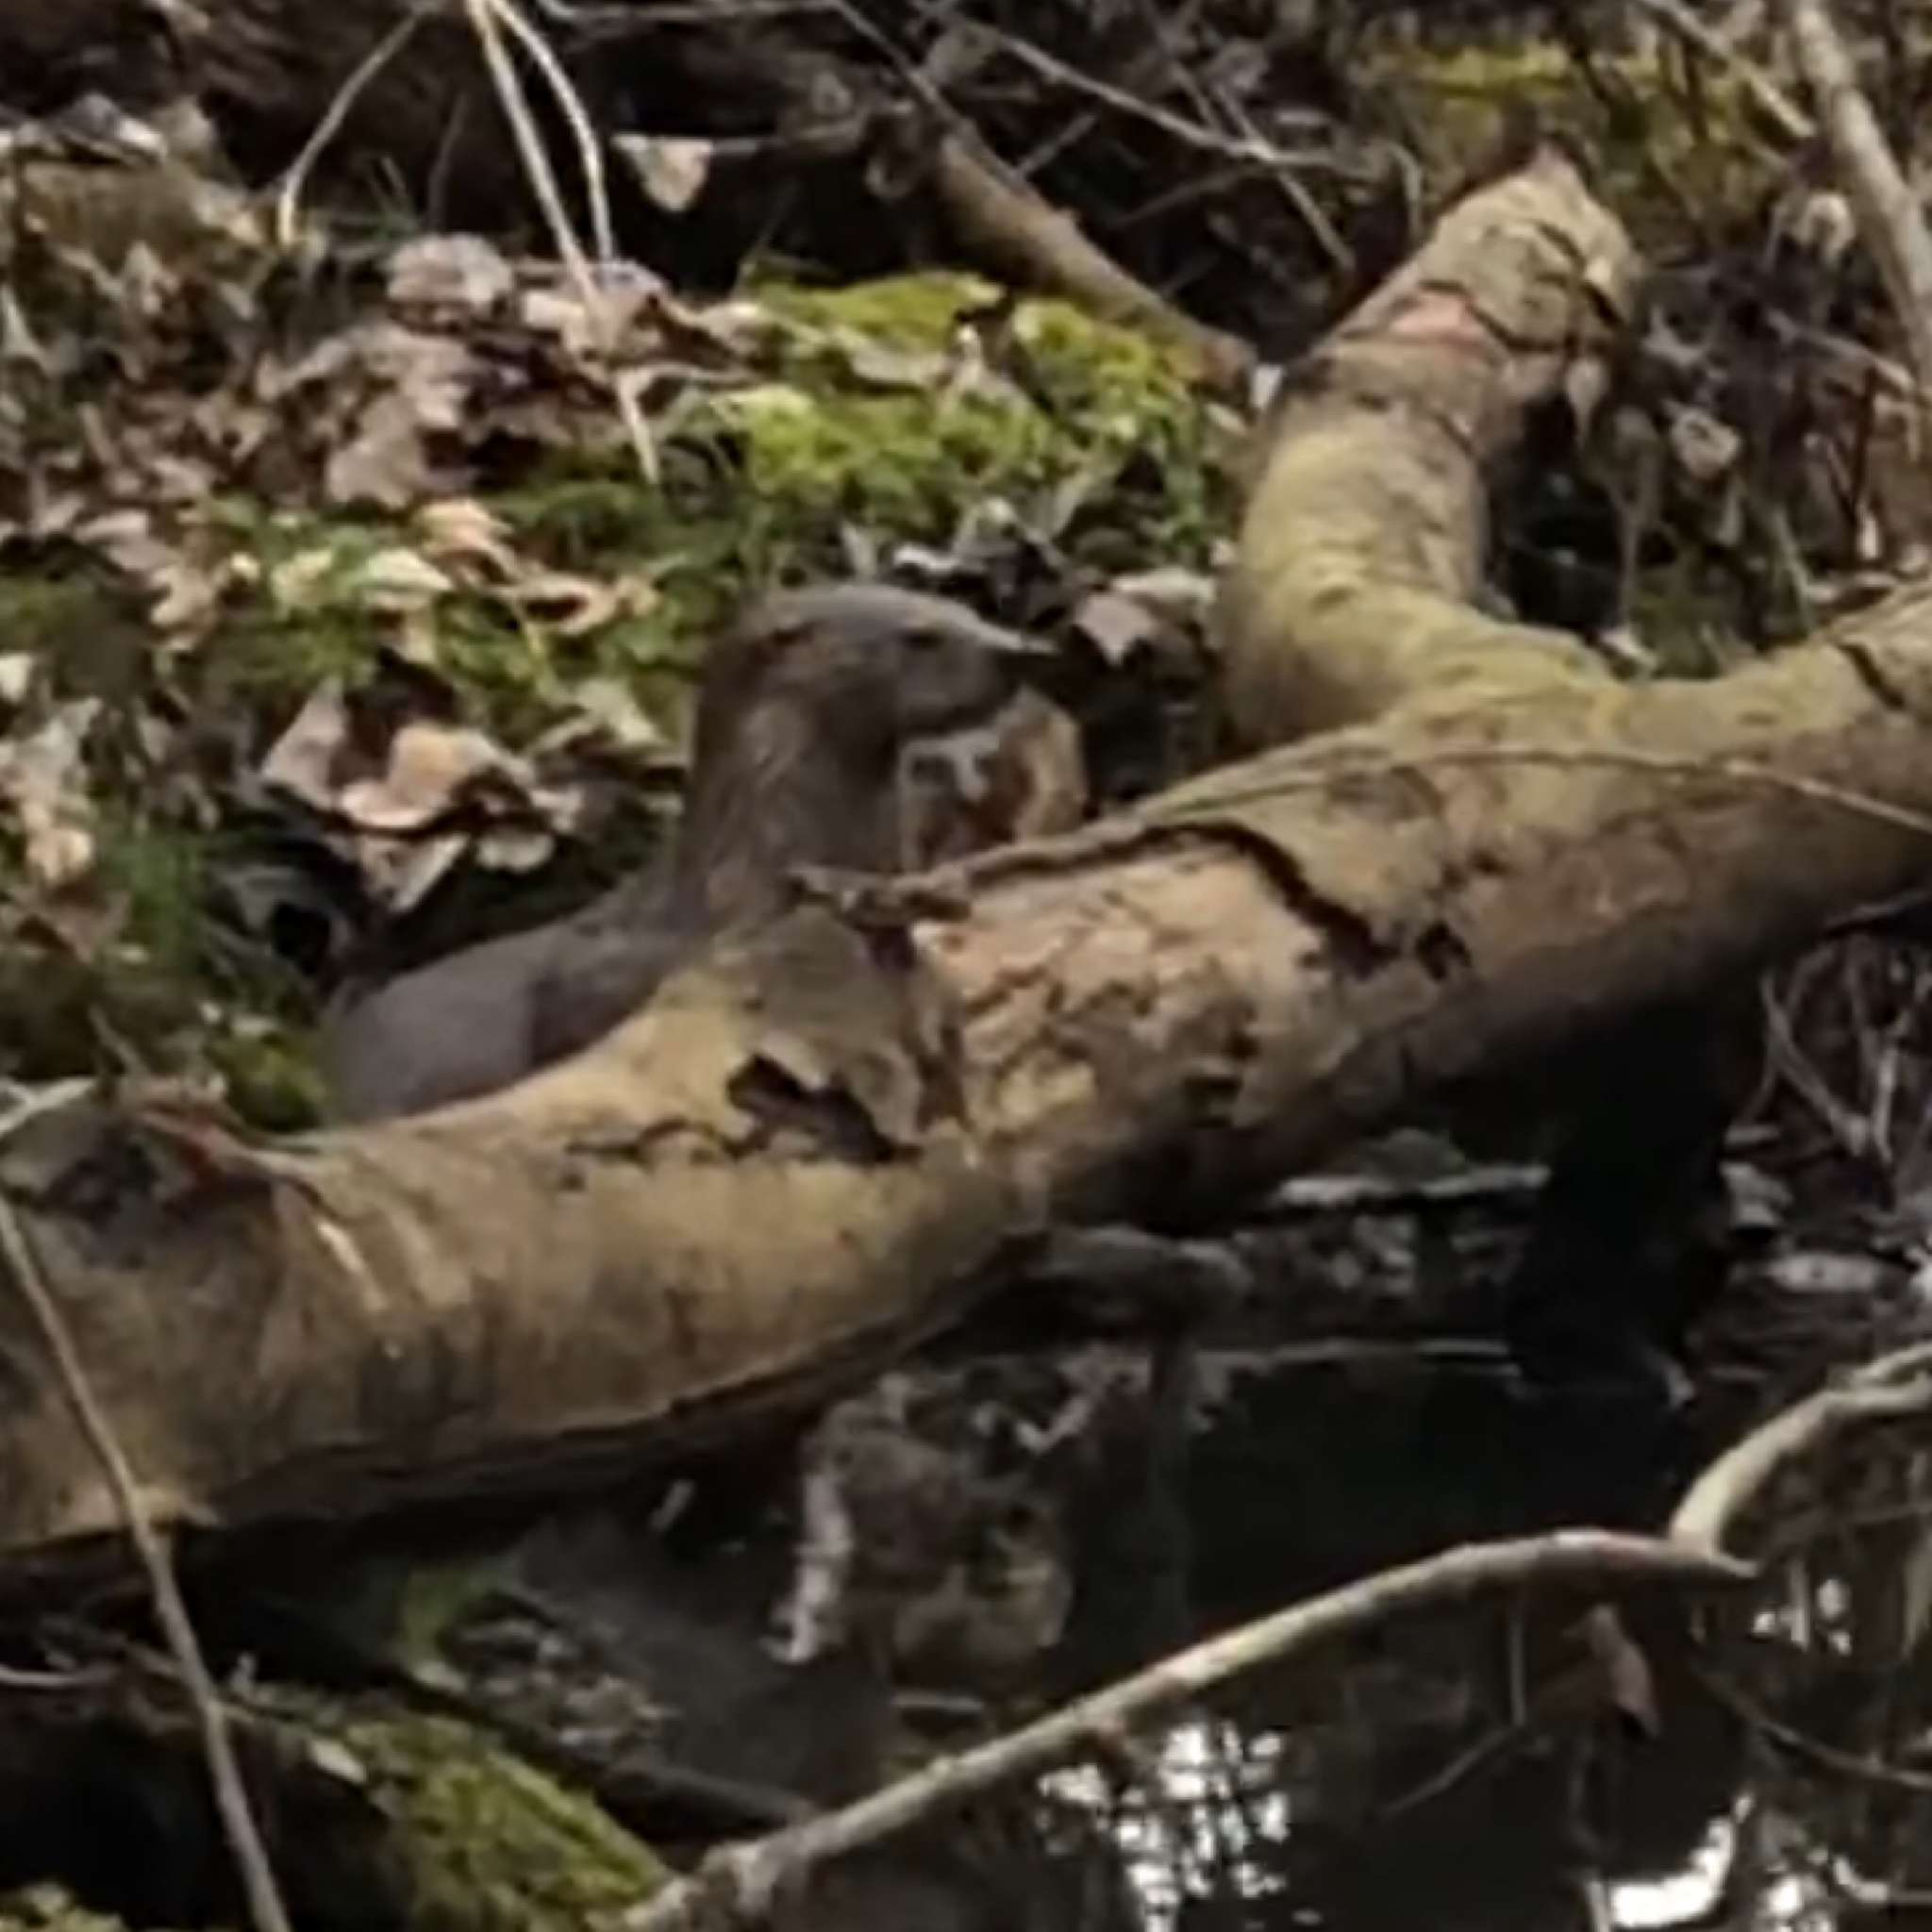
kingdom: Animalia
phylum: Chordata
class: Mammalia
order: Carnivora
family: Mustelidae
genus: Lontra
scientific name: Lontra canadensis
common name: North american river otter
